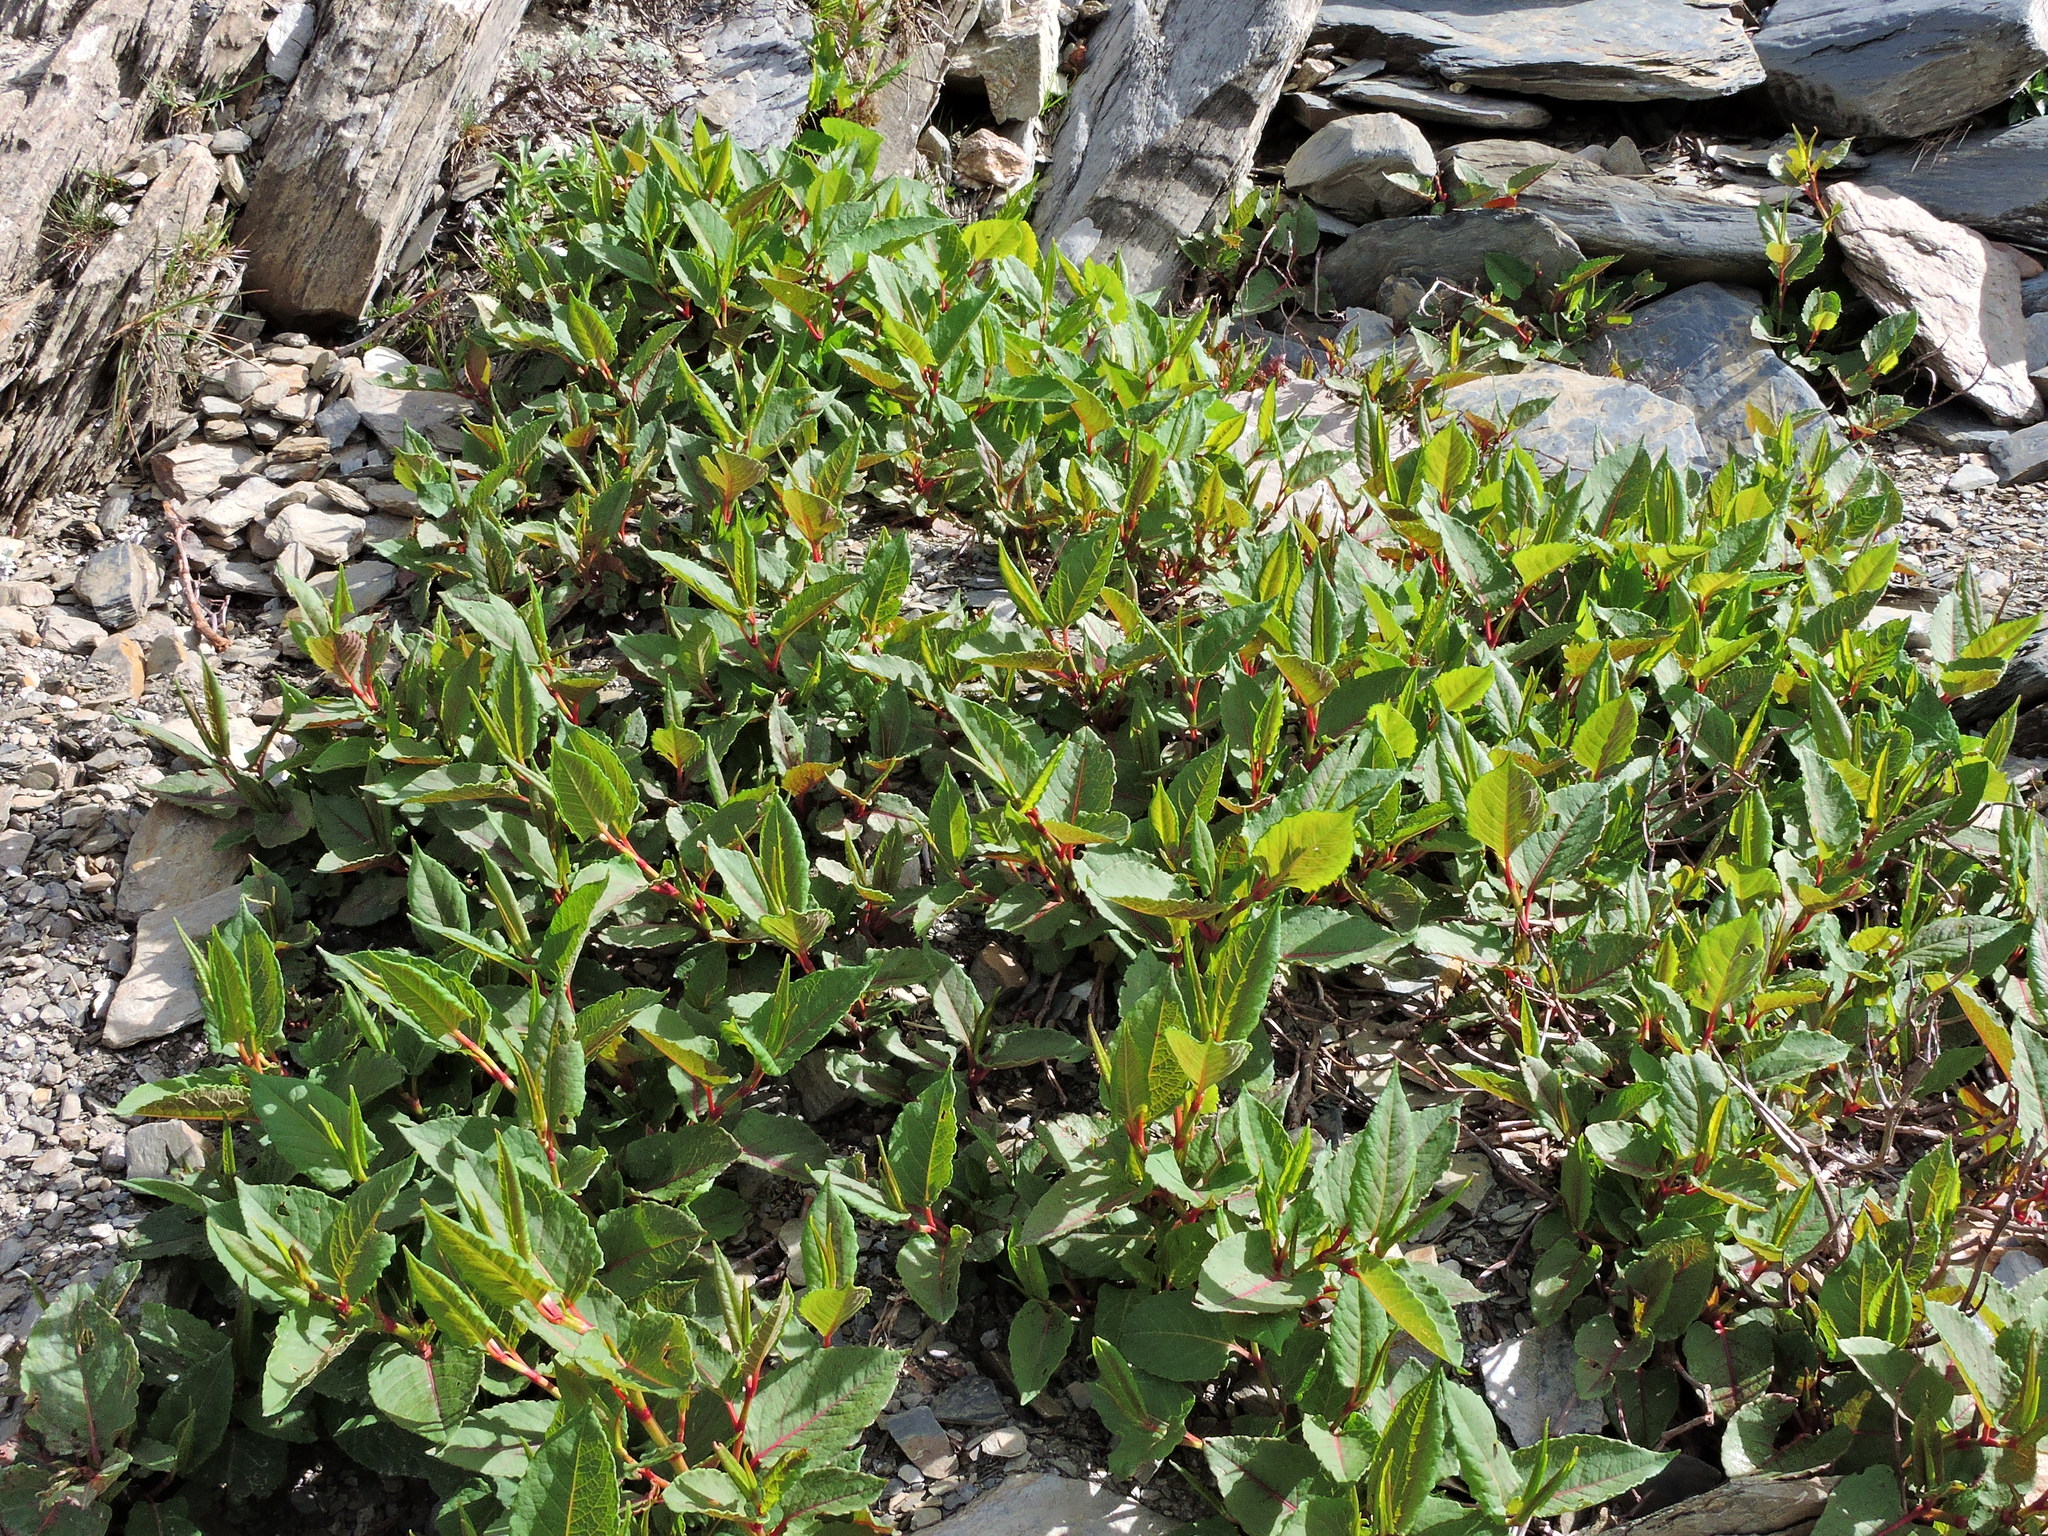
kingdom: Plantae
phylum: Tracheophyta
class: Magnoliopsida
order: Caryophyllales
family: Polygonaceae
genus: Reynoutria
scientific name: Reynoutria japonica
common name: Japanese knotweed
